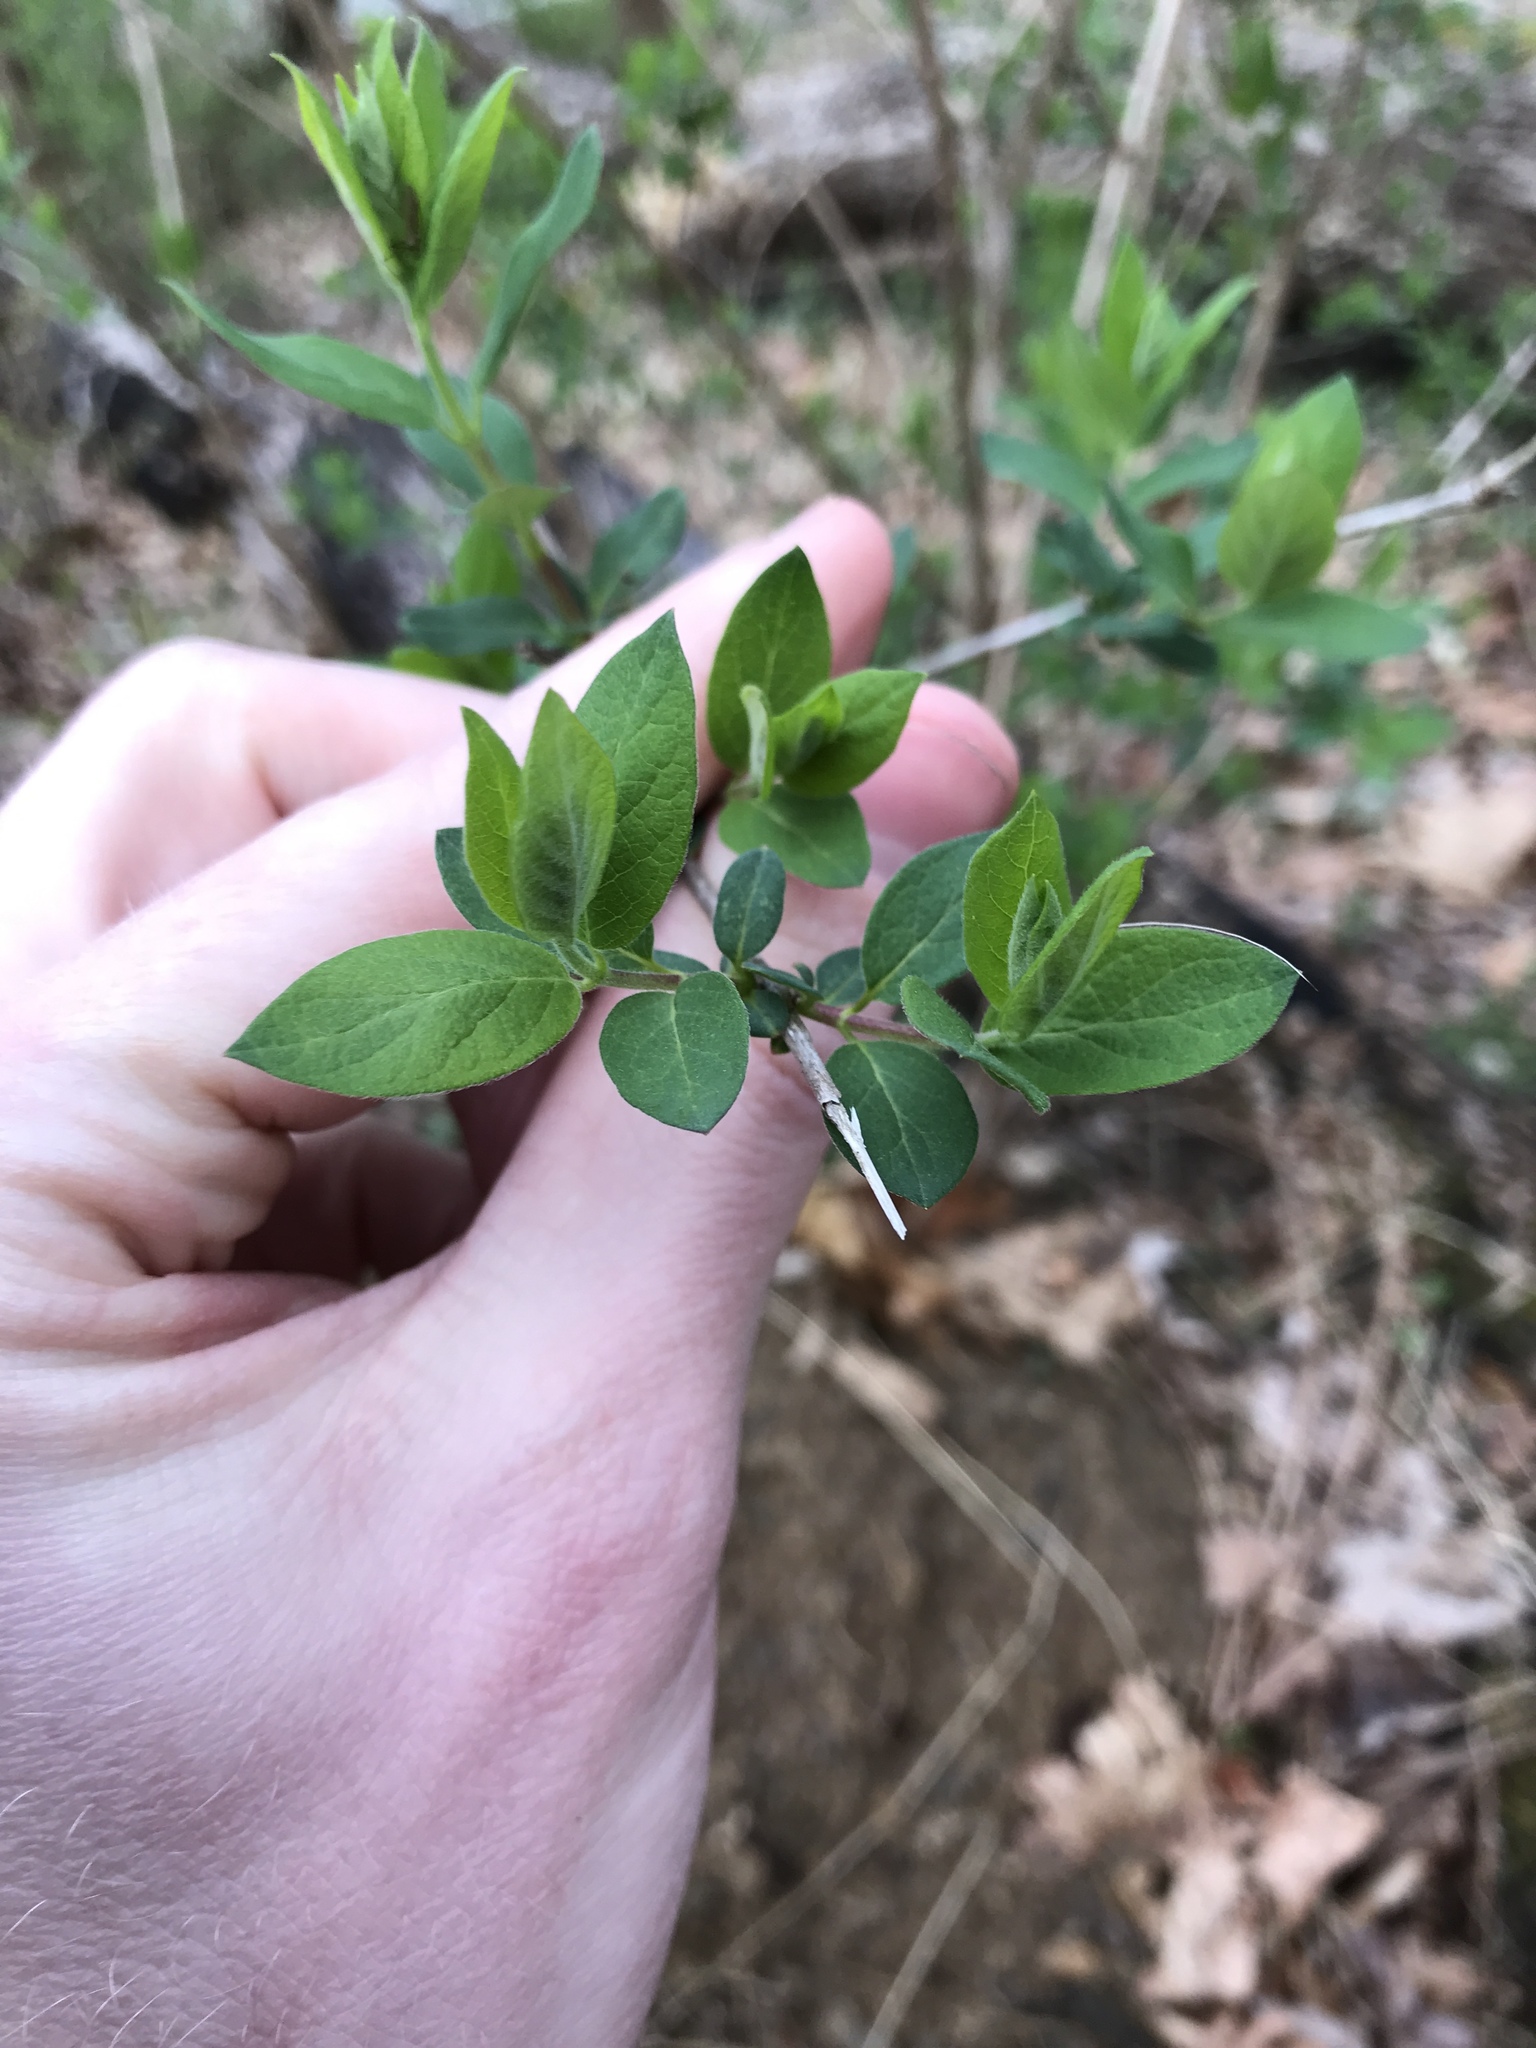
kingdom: Plantae
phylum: Tracheophyta
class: Magnoliopsida
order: Dipsacales
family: Caprifoliaceae
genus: Lonicera
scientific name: Lonicera morrowii
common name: Morrow's honeysuckle
